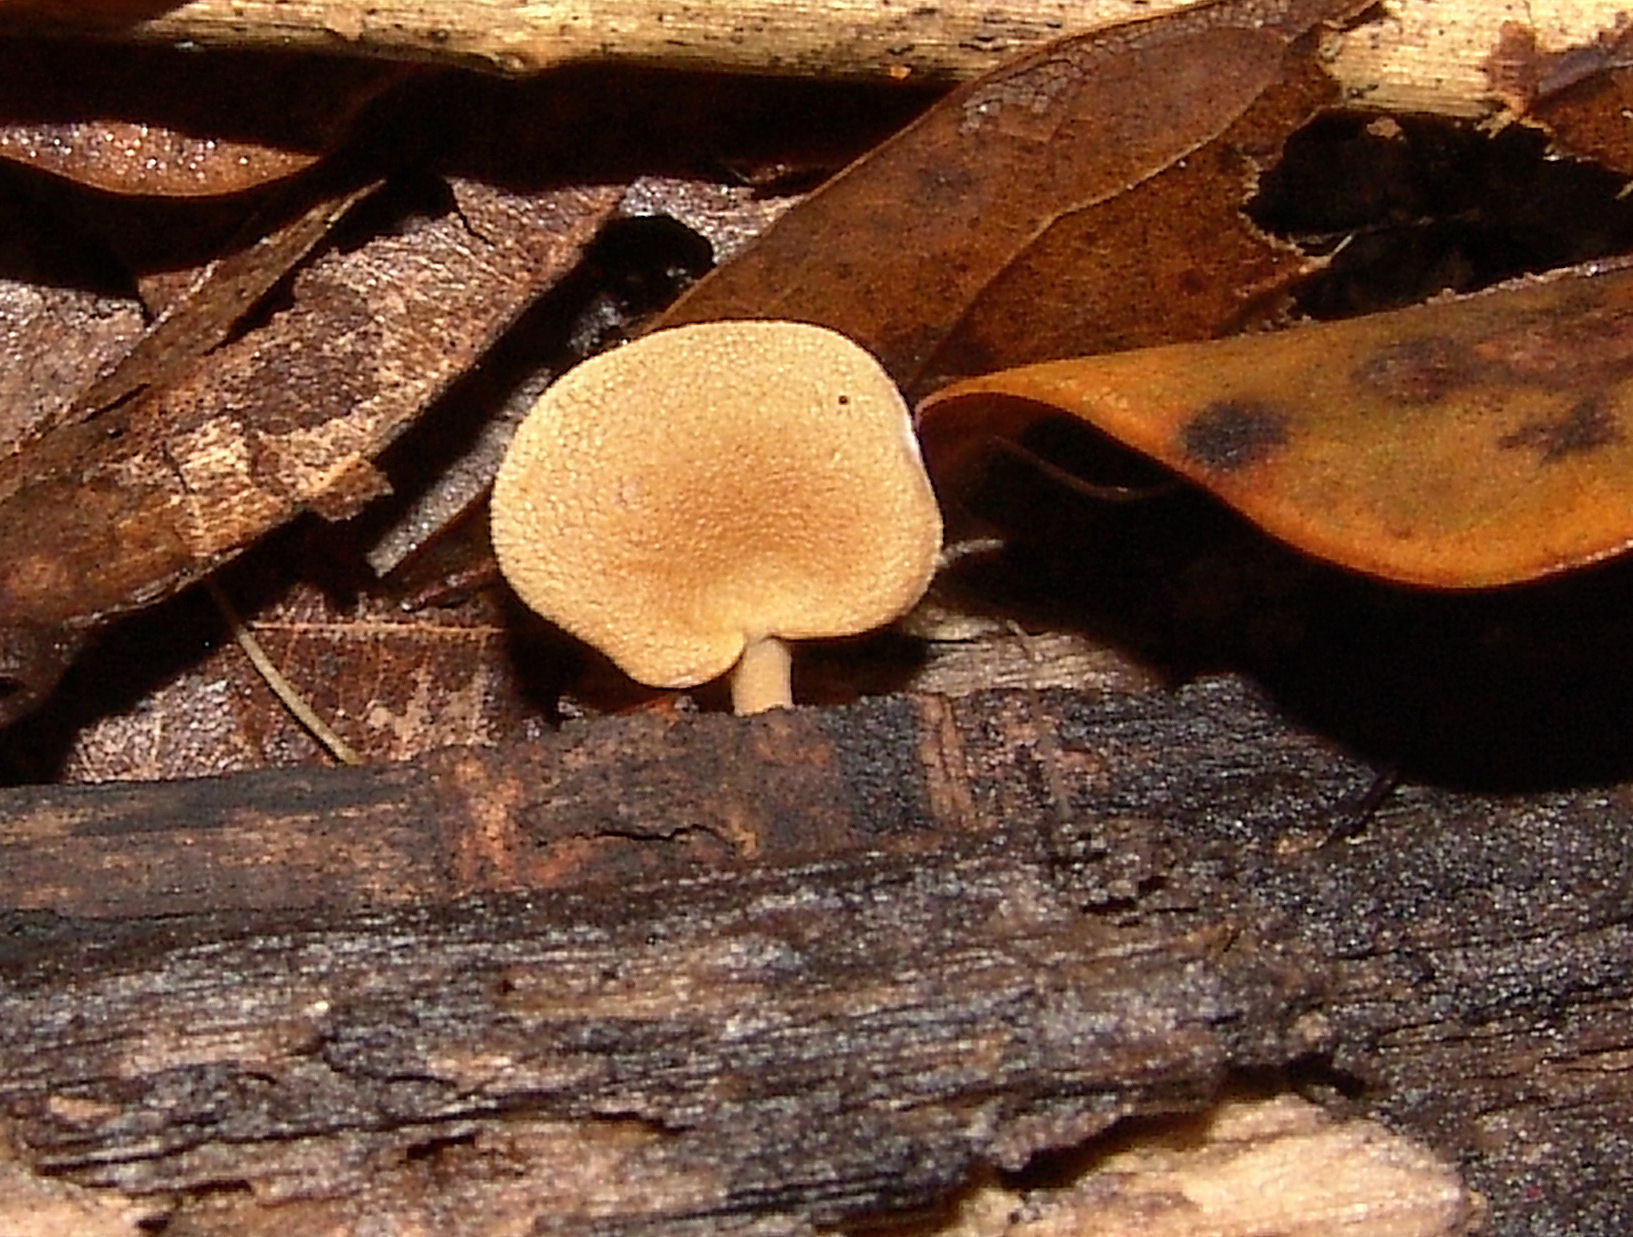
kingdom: Fungi
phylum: Basidiomycota
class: Agaricomycetes
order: Agaricales
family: Mycenaceae
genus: Panellus
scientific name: Panellus stipticus
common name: Bitter oysterling
